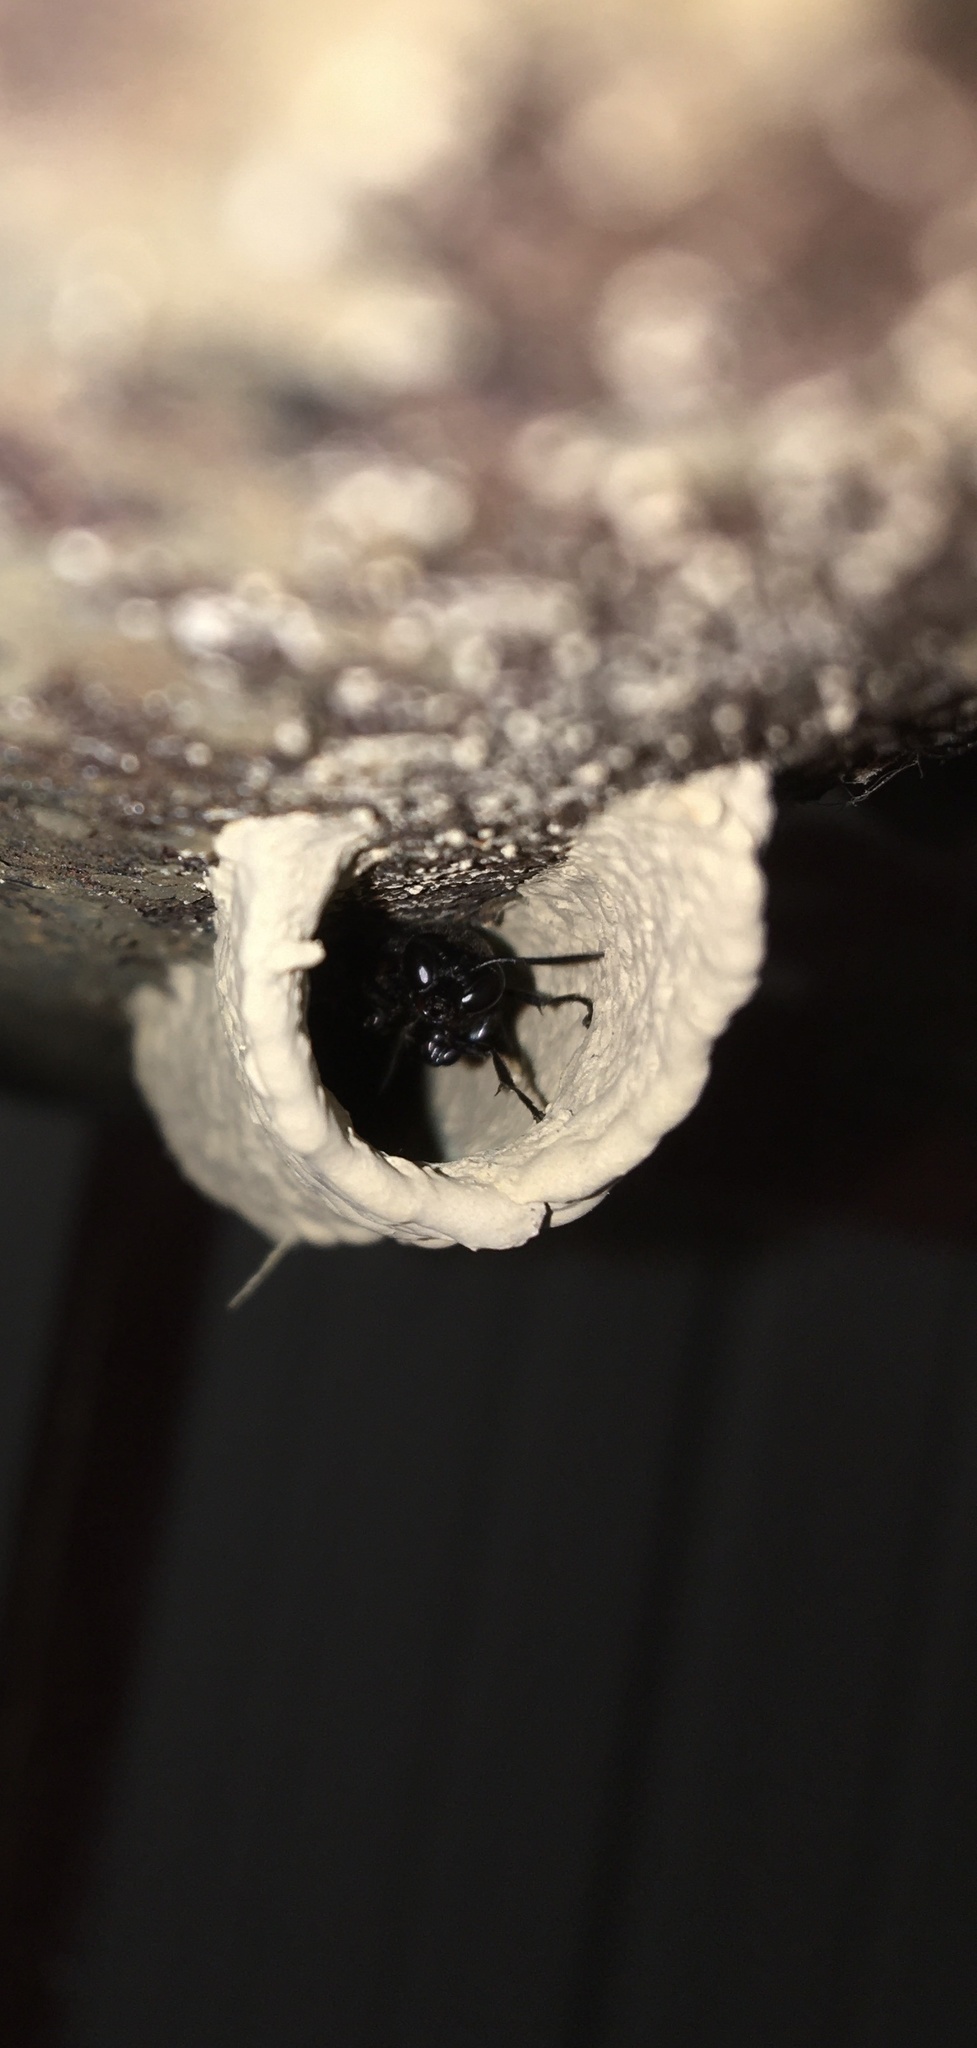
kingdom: Animalia
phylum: Arthropoda
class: Insecta
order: Hymenoptera
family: Crabronidae
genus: Trypoxylon
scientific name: Trypoxylon politum
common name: Organ-pipe mud-dauber wasp
